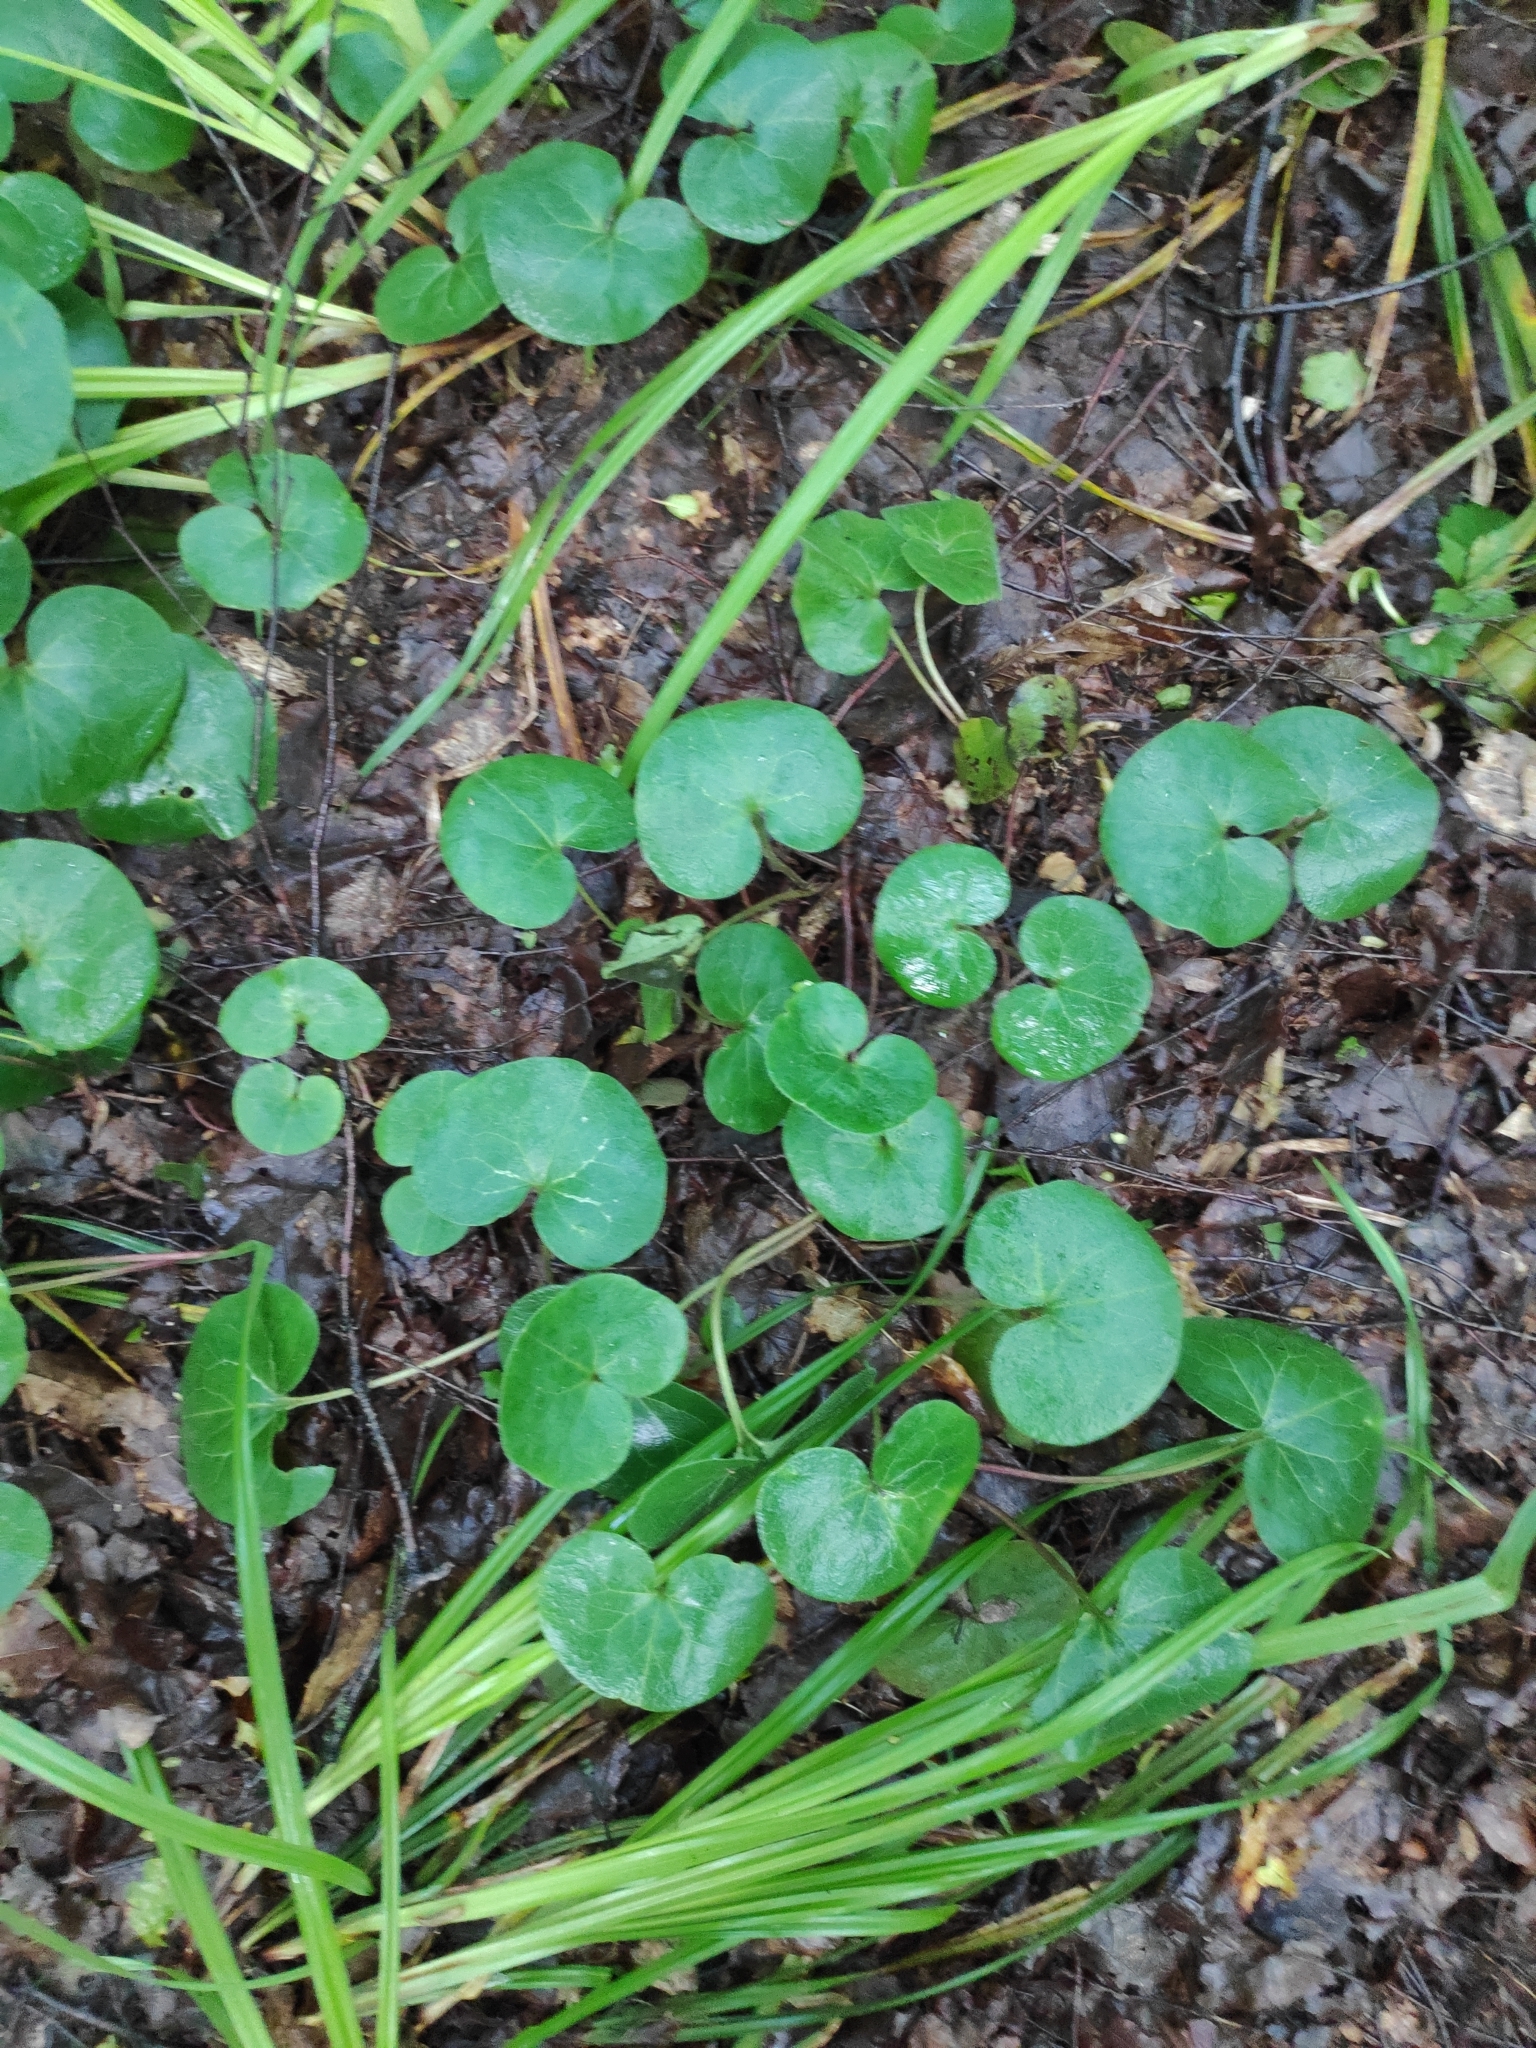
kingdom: Plantae
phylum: Tracheophyta
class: Magnoliopsida
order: Piperales
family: Aristolochiaceae
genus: Asarum
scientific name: Asarum europaeum
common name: Asarabacca
